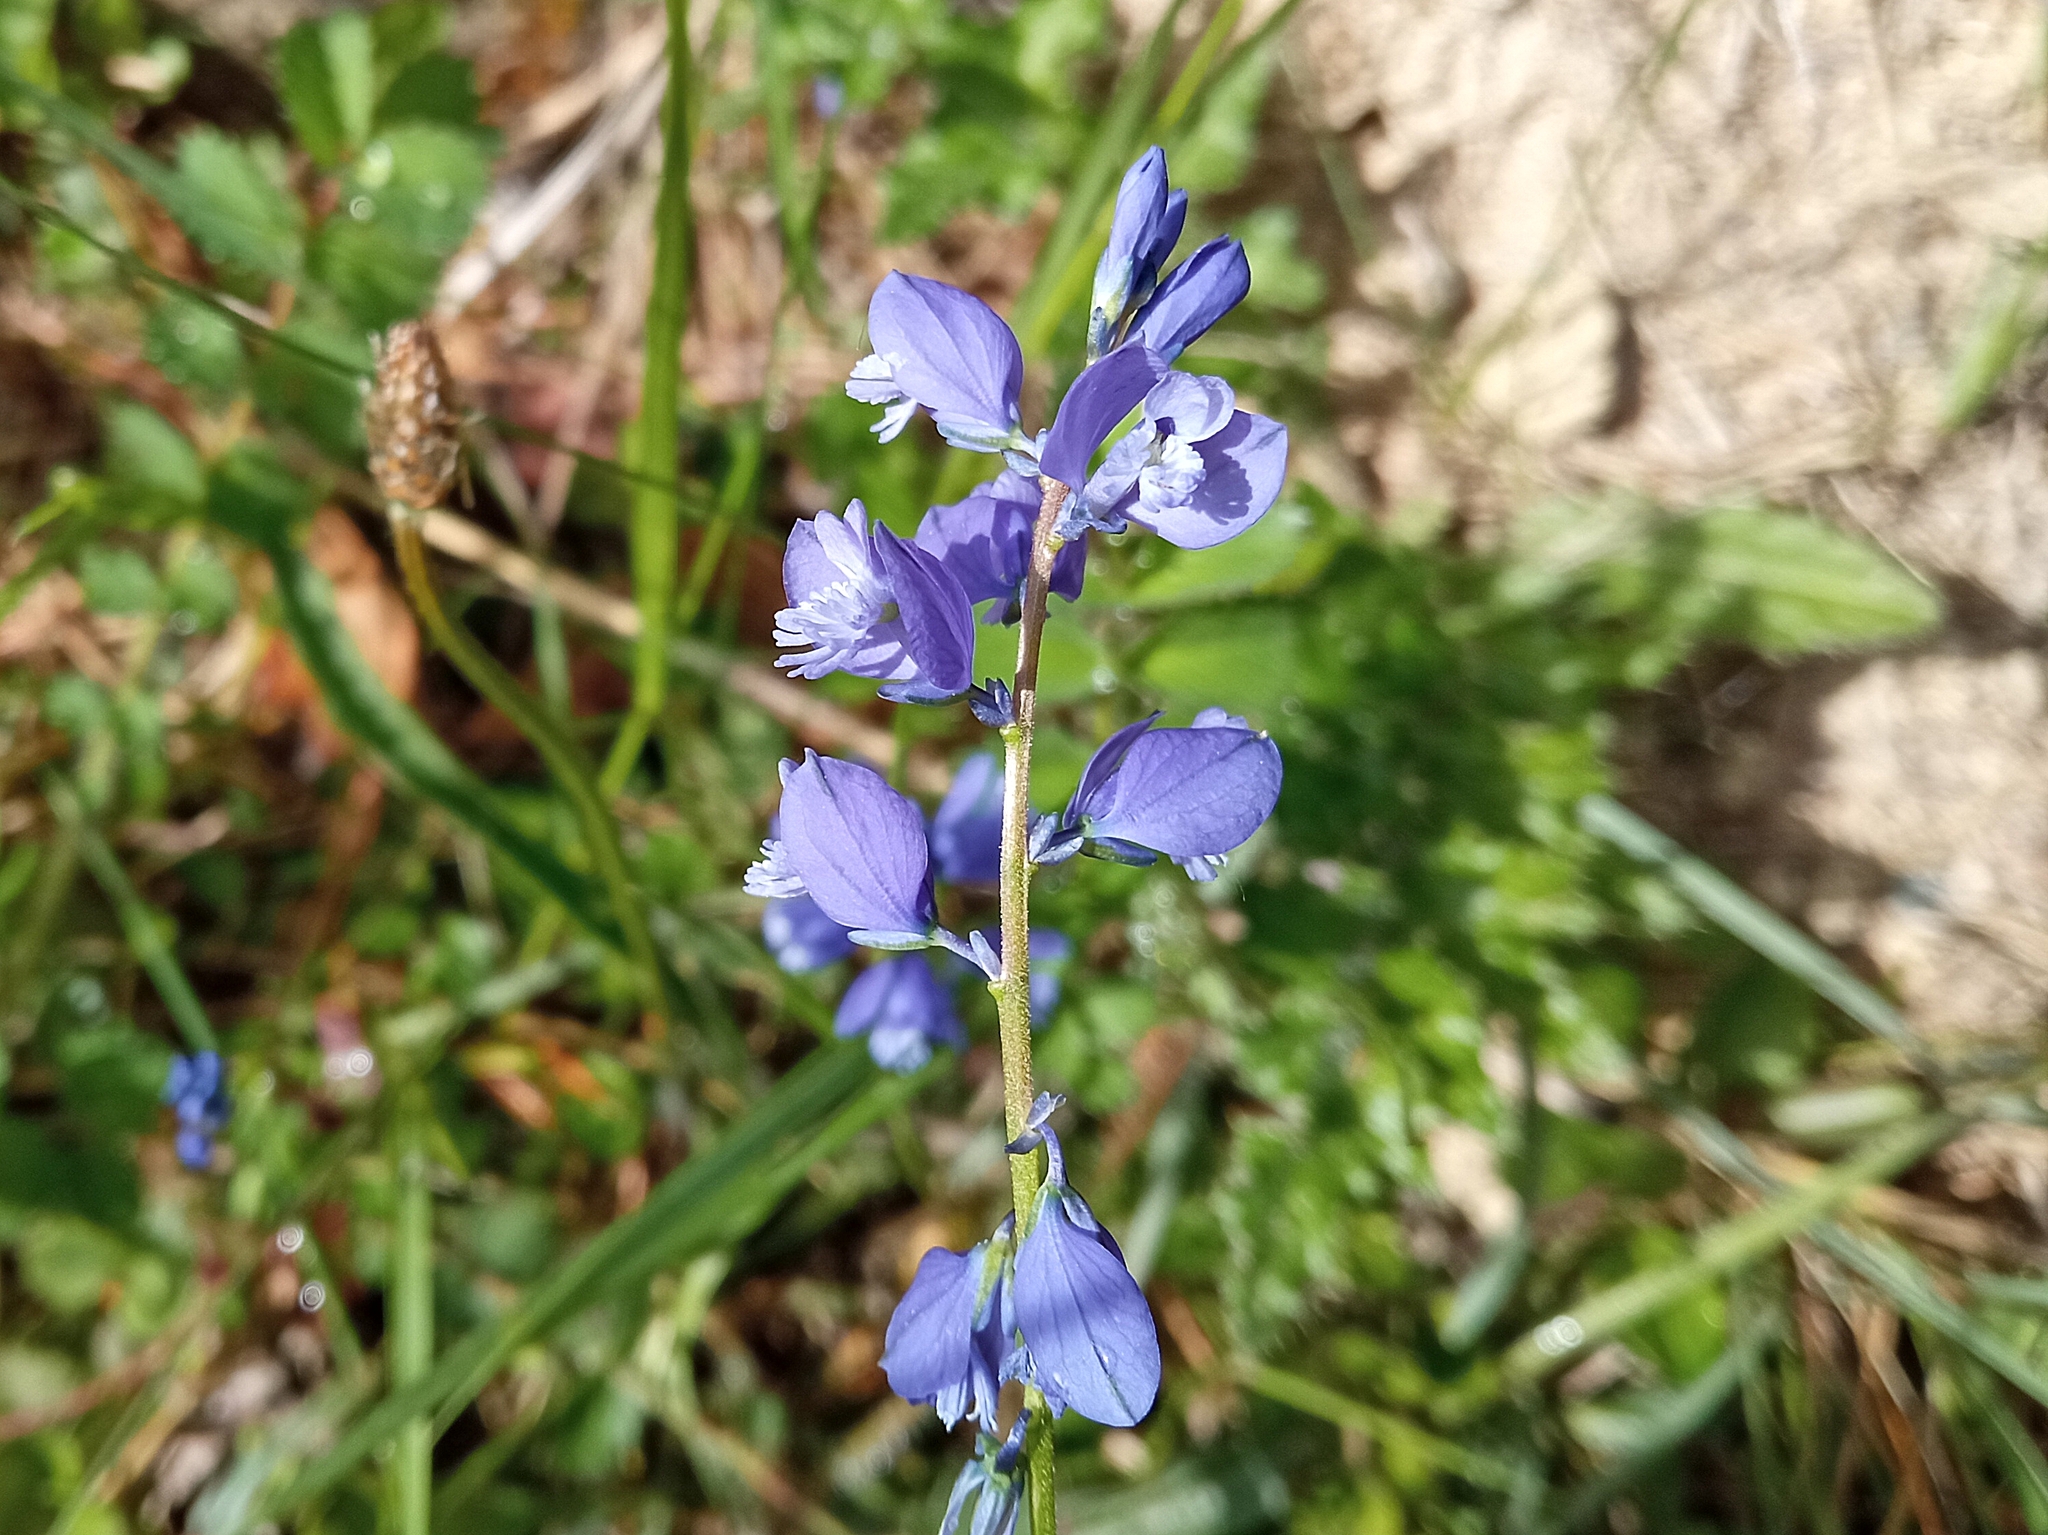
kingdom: Plantae
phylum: Tracheophyta
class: Magnoliopsida
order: Fabales
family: Polygalaceae
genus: Polygala
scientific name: Polygala calcarea
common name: Chalk milkwort
